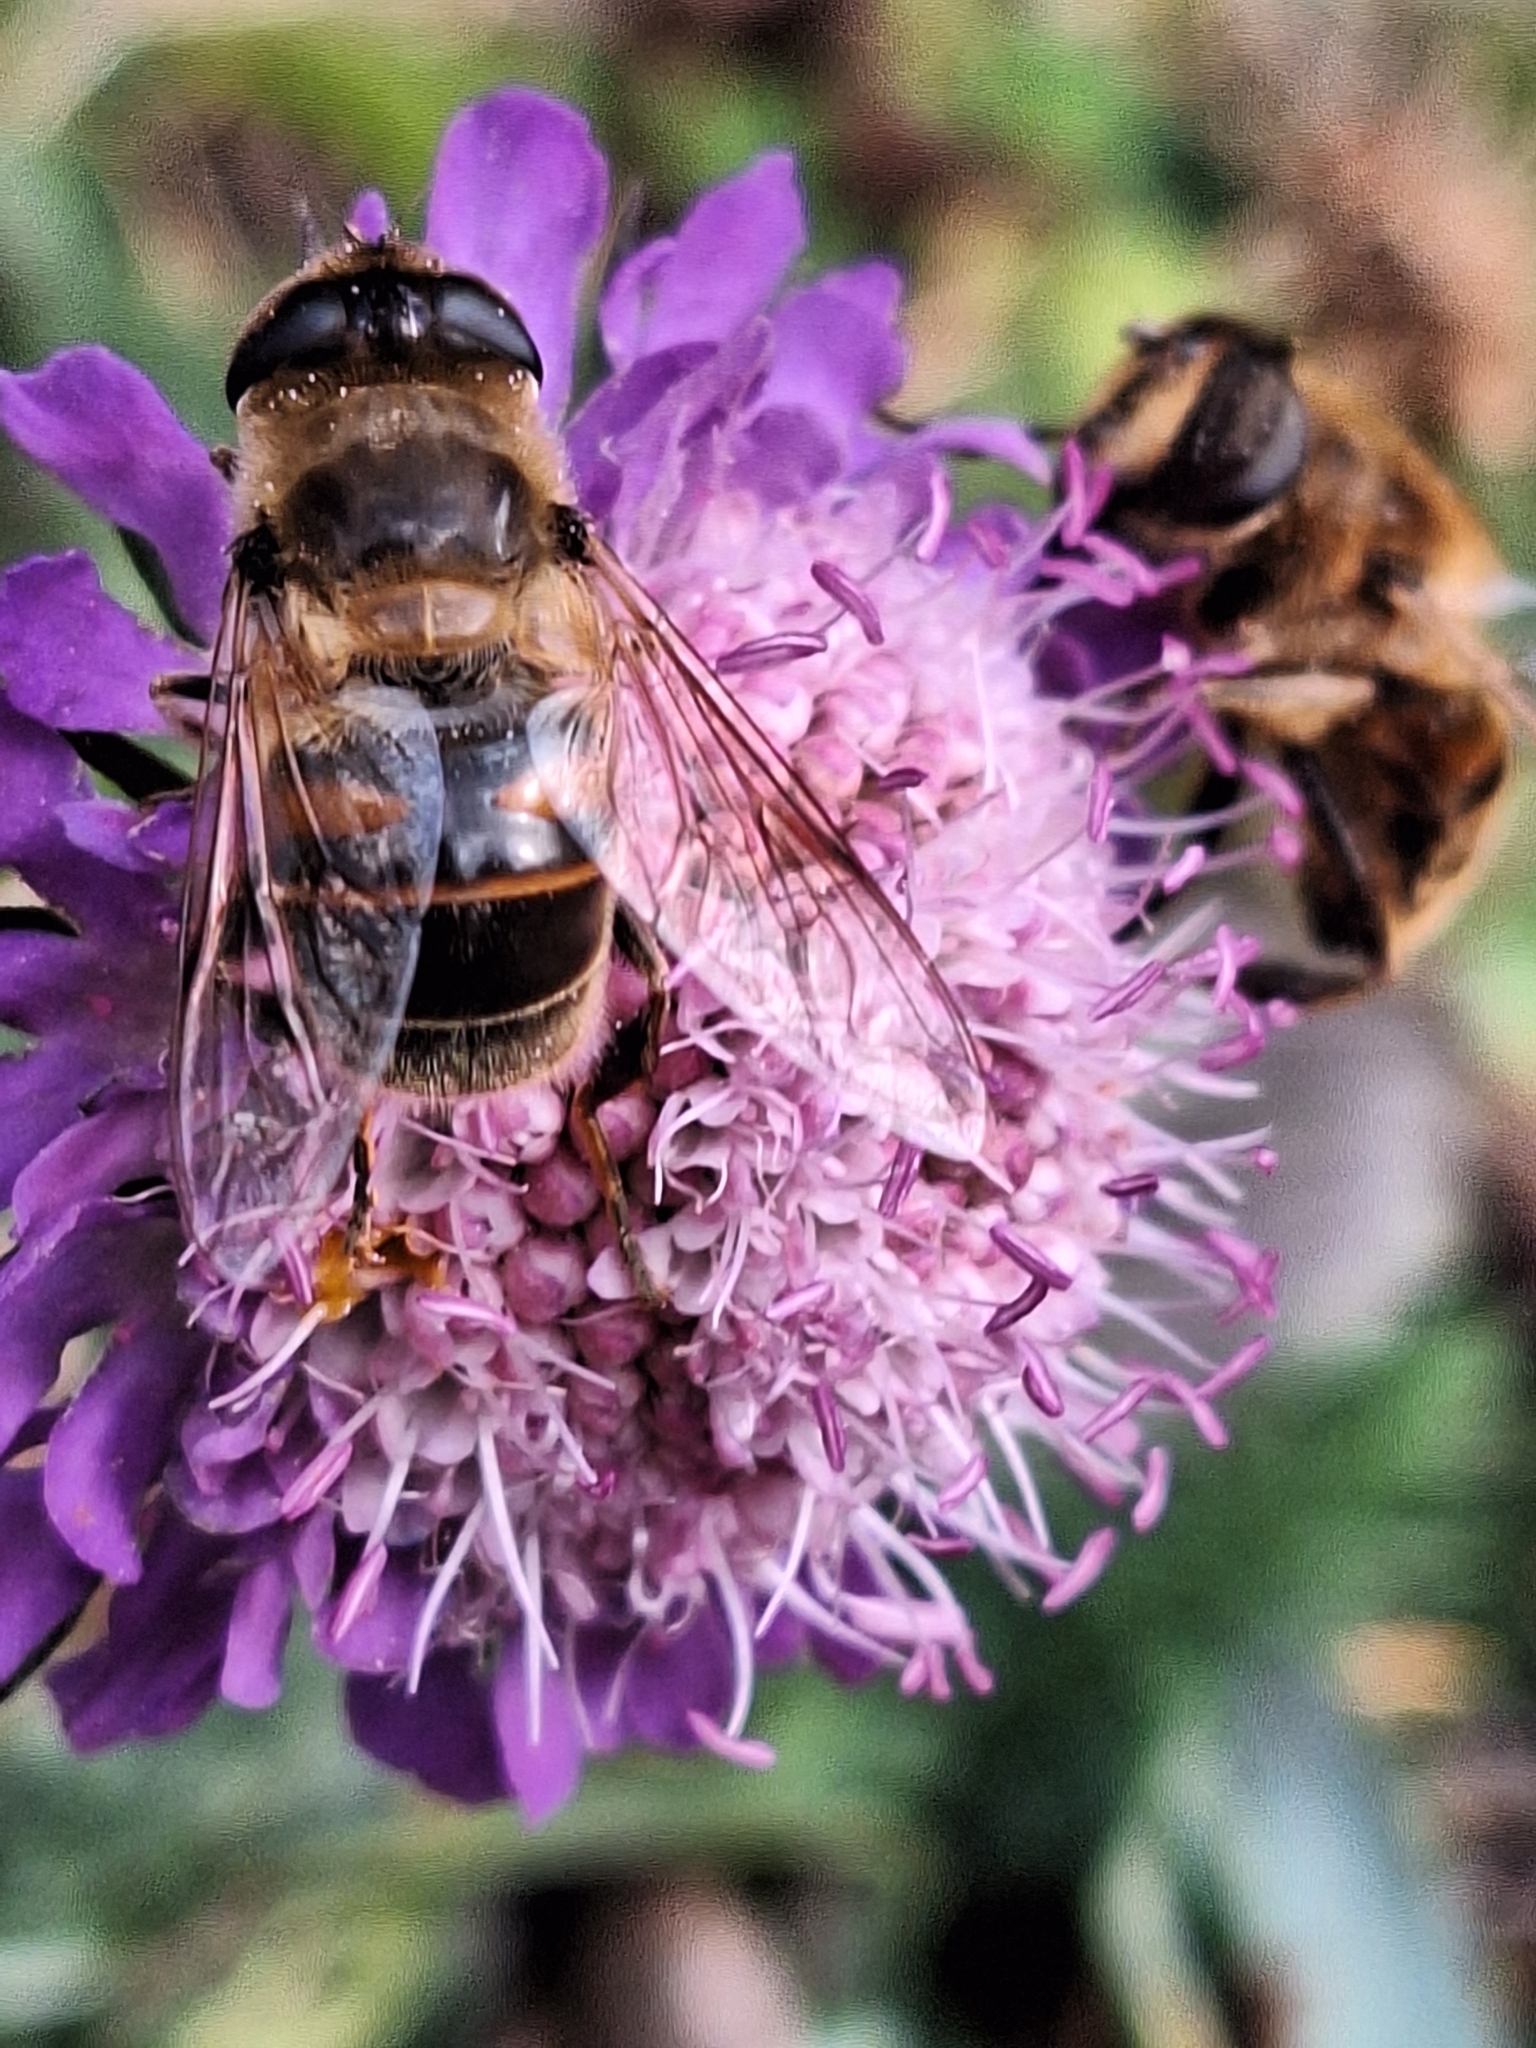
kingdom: Animalia
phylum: Arthropoda
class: Insecta
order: Diptera
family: Syrphidae
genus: Eristalis
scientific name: Eristalis tenax
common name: Drone fly
